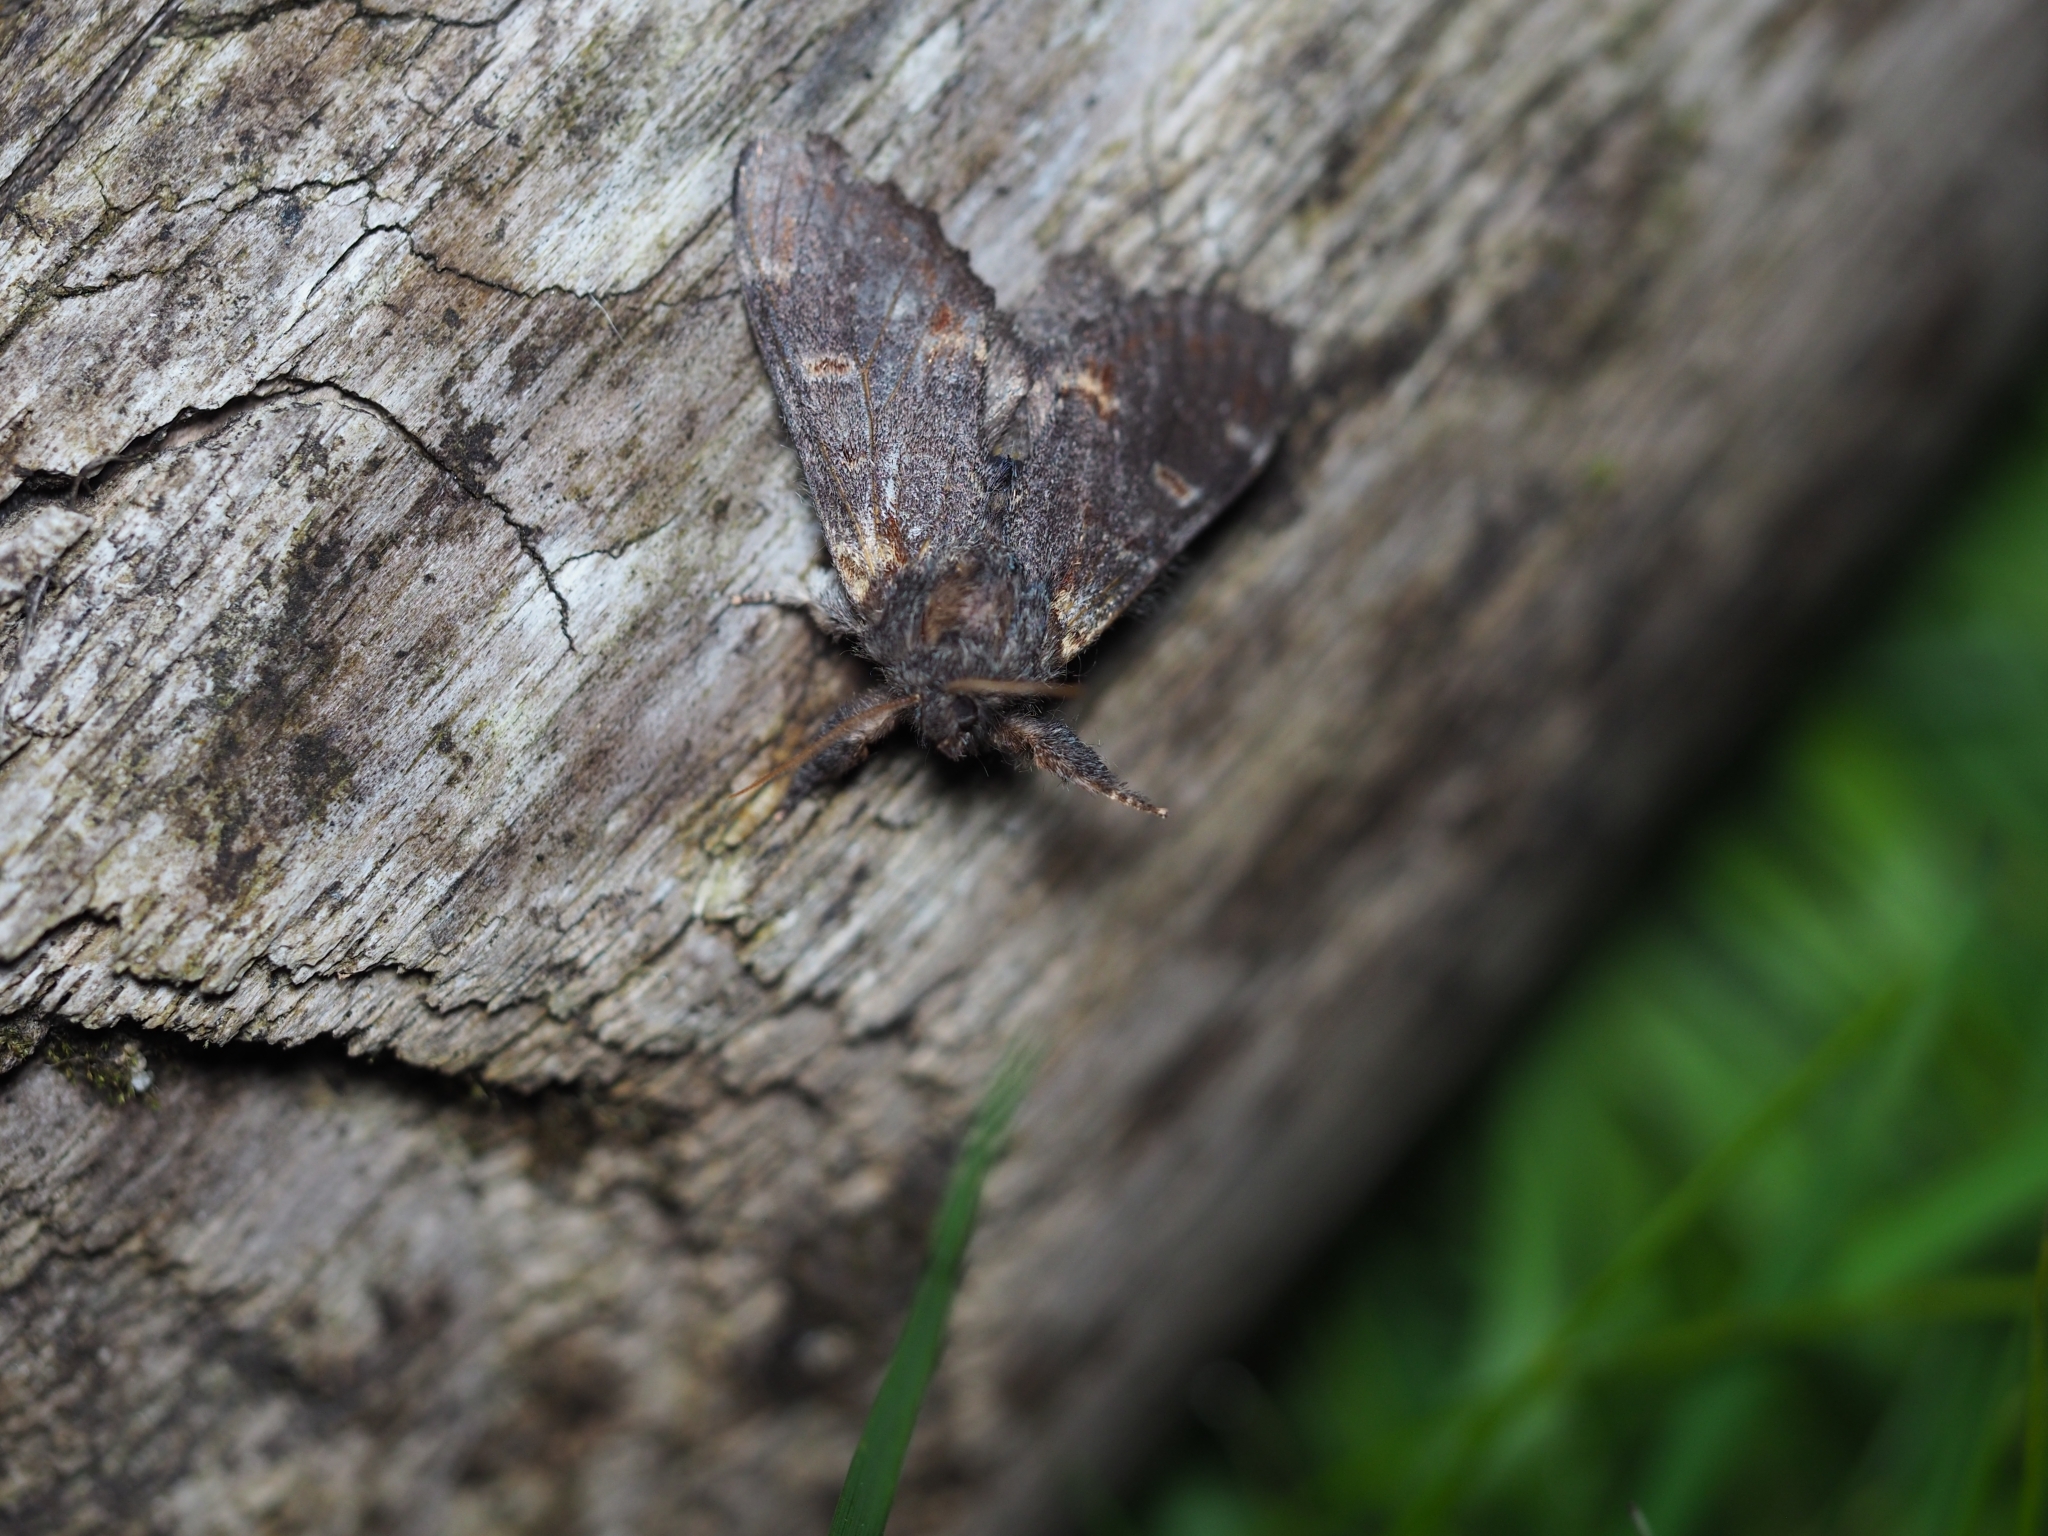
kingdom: Animalia
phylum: Arthropoda
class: Insecta
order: Lepidoptera
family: Notodontidae
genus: Notodonta
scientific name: Notodonta dromedarius
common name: Iron prominent
